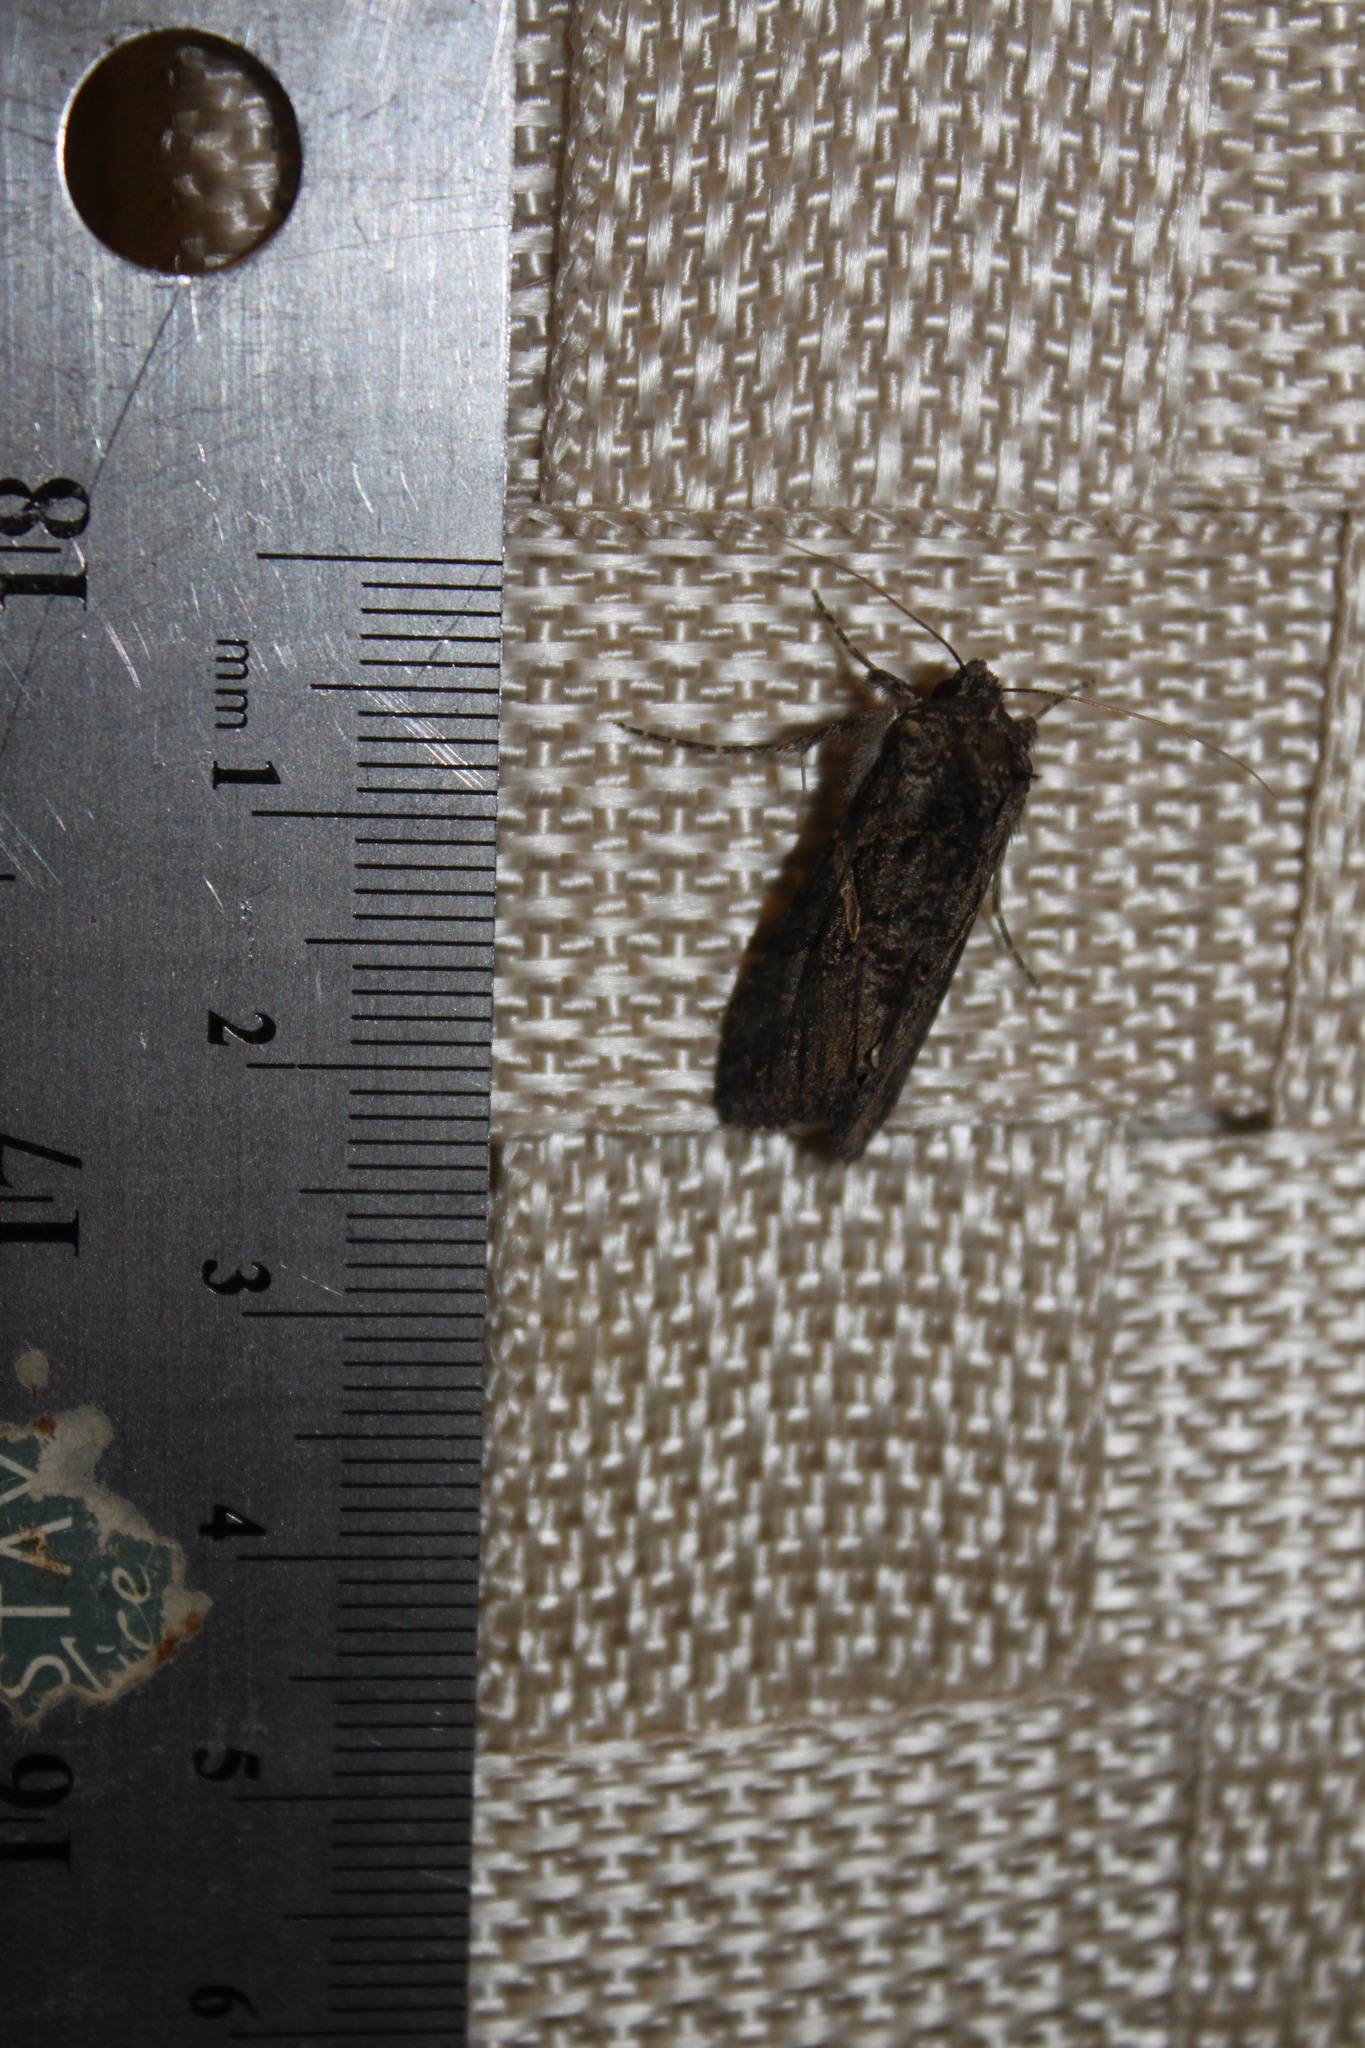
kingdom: Animalia
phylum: Arthropoda
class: Insecta
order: Lepidoptera
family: Noctuidae
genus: Ctenoplusia
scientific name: Ctenoplusia oxygramma
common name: Sharp-stigma looper moth
